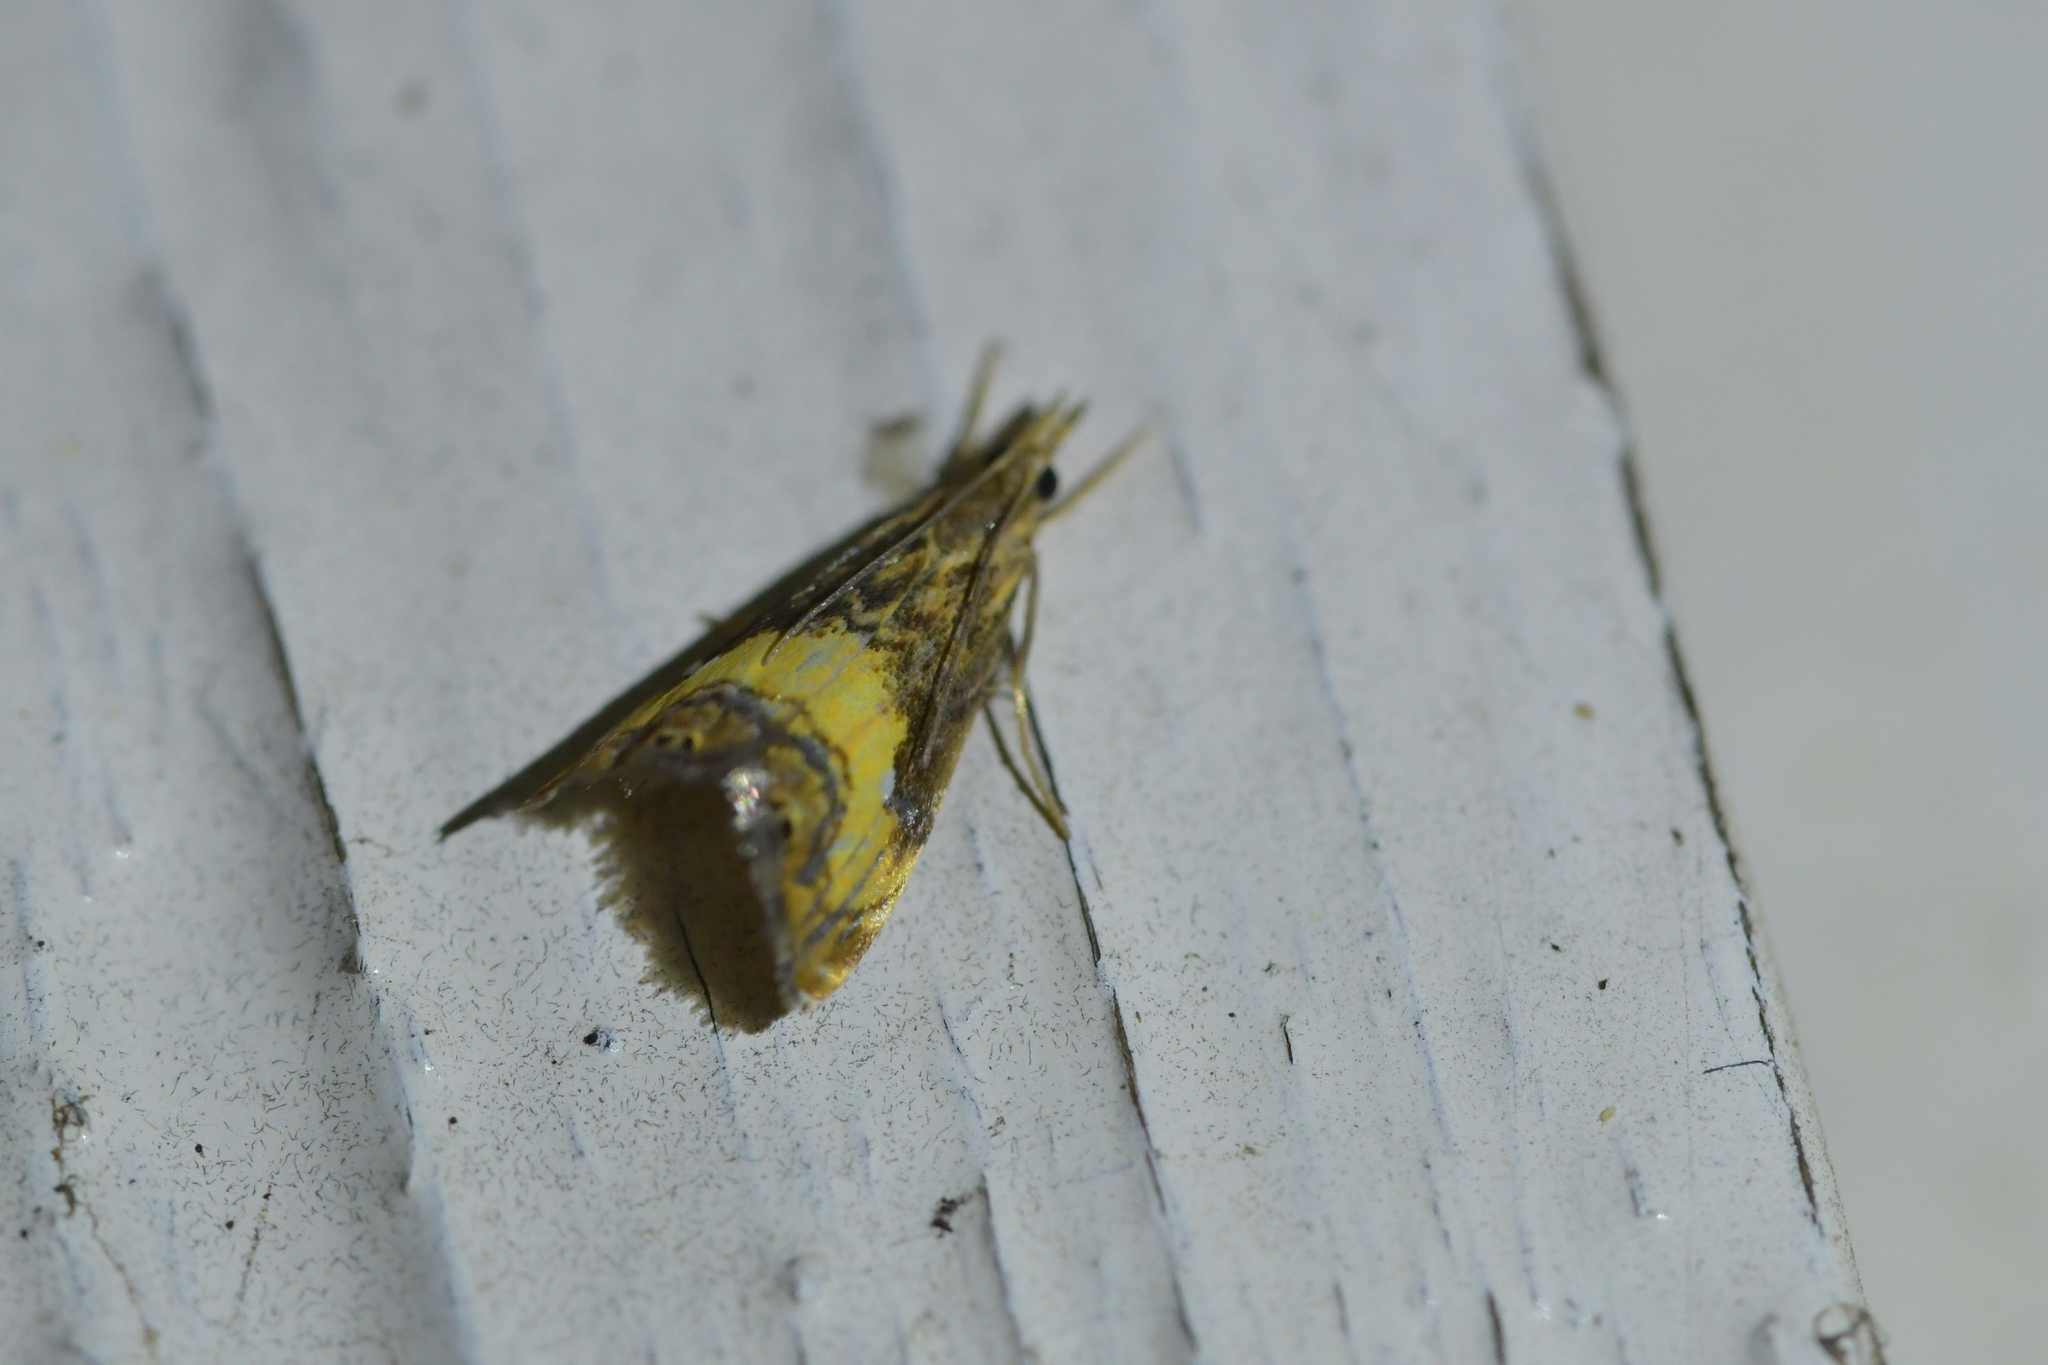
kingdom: Animalia
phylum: Arthropoda
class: Insecta
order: Lepidoptera
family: Crambidae
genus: Glaucocharis
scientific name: Glaucocharis chrysochyta
